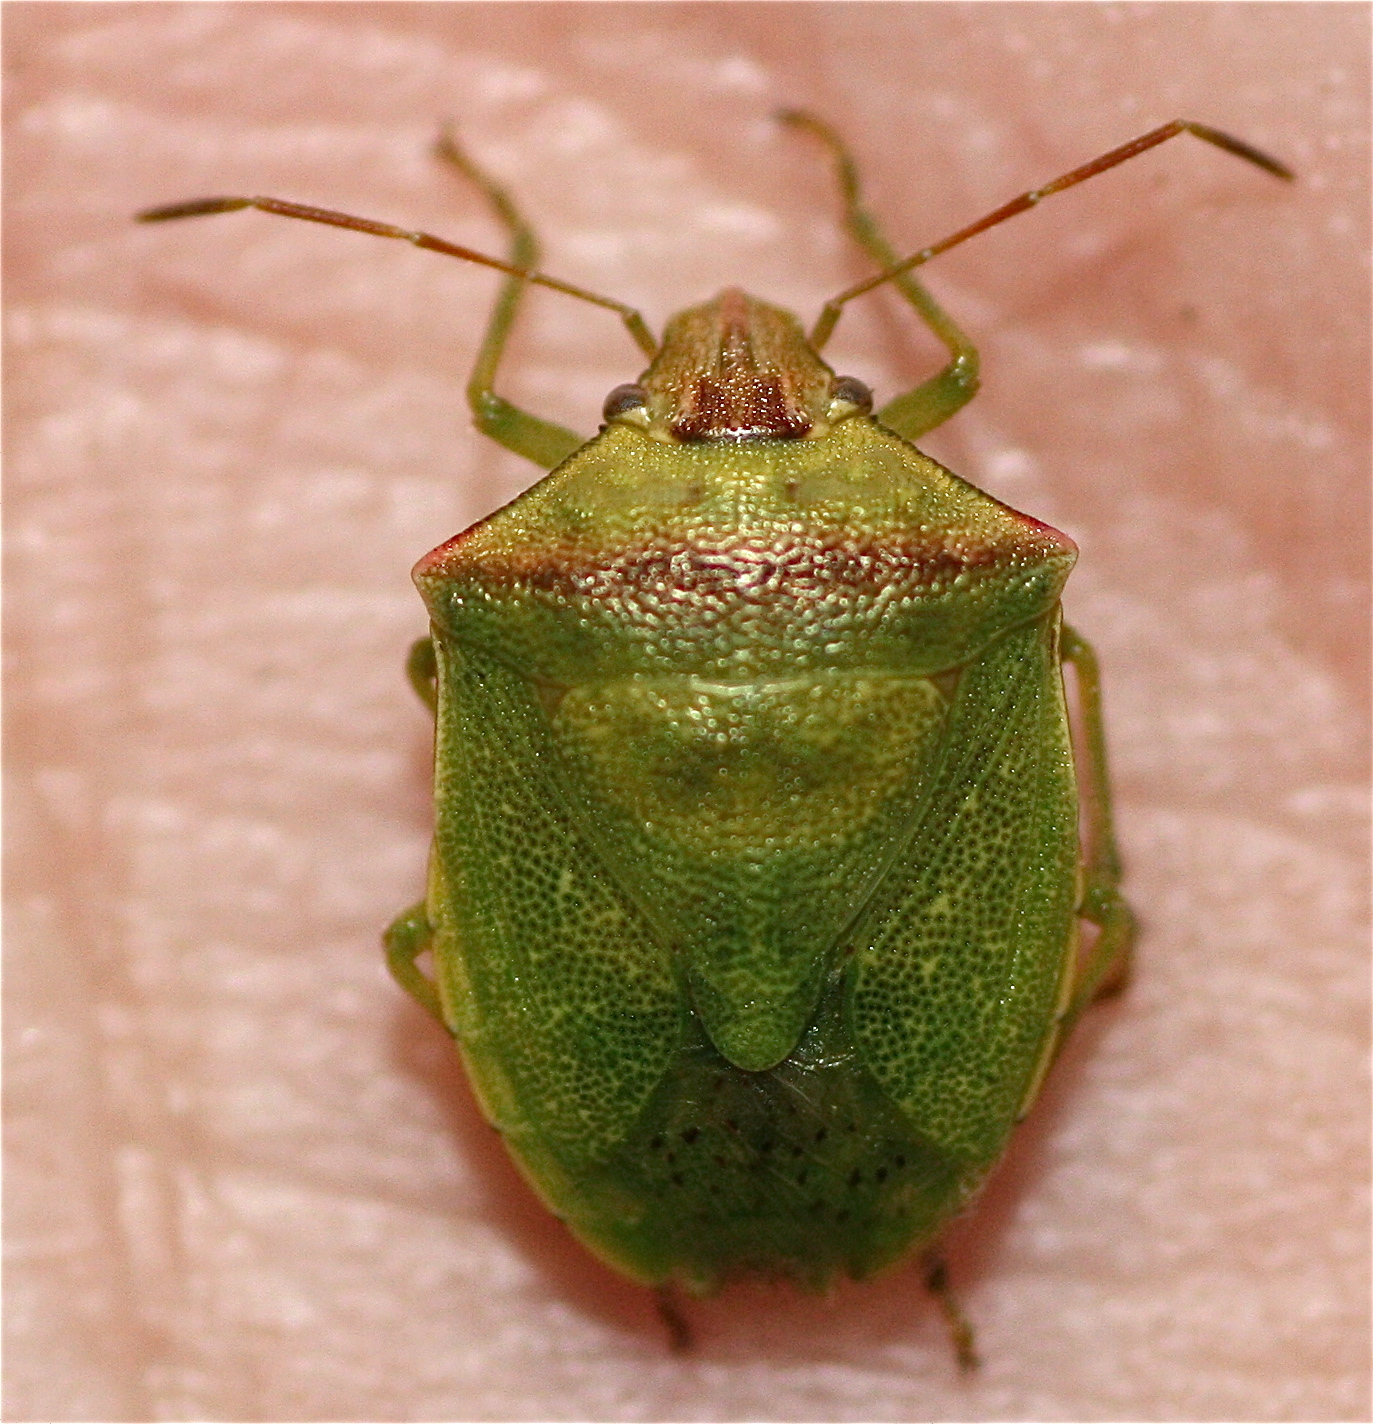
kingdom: Animalia
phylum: Arthropoda
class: Insecta
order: Hemiptera
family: Pentatomidae
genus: Thyanta
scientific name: Thyanta calceata
